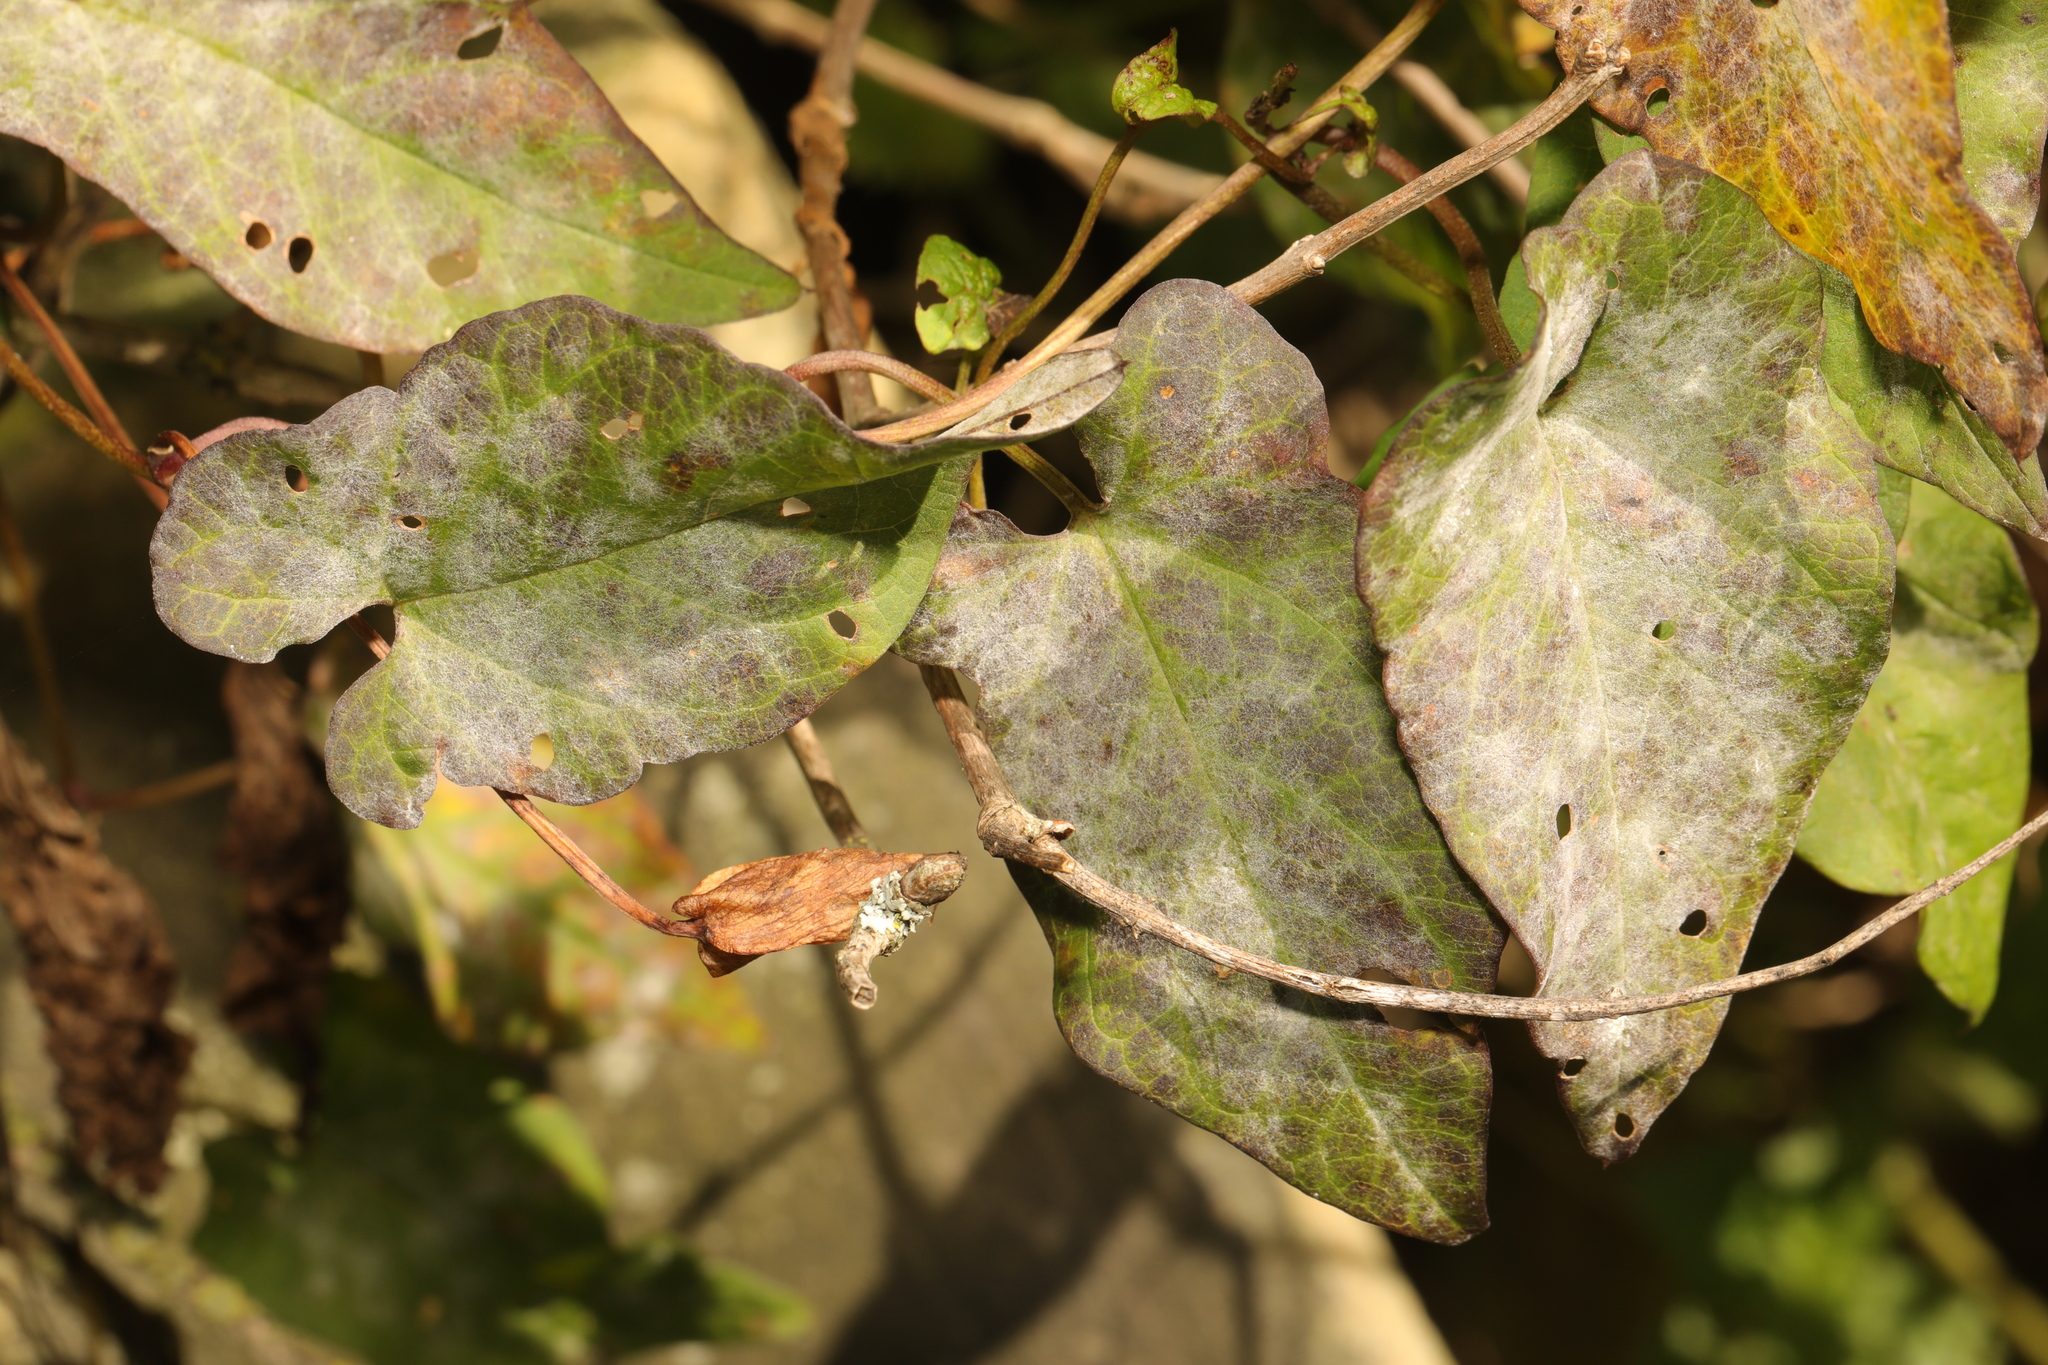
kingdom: Plantae
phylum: Tracheophyta
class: Magnoliopsida
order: Solanales
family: Convolvulaceae
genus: Calystegia
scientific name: Calystegia sepium
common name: Hedge bindweed
